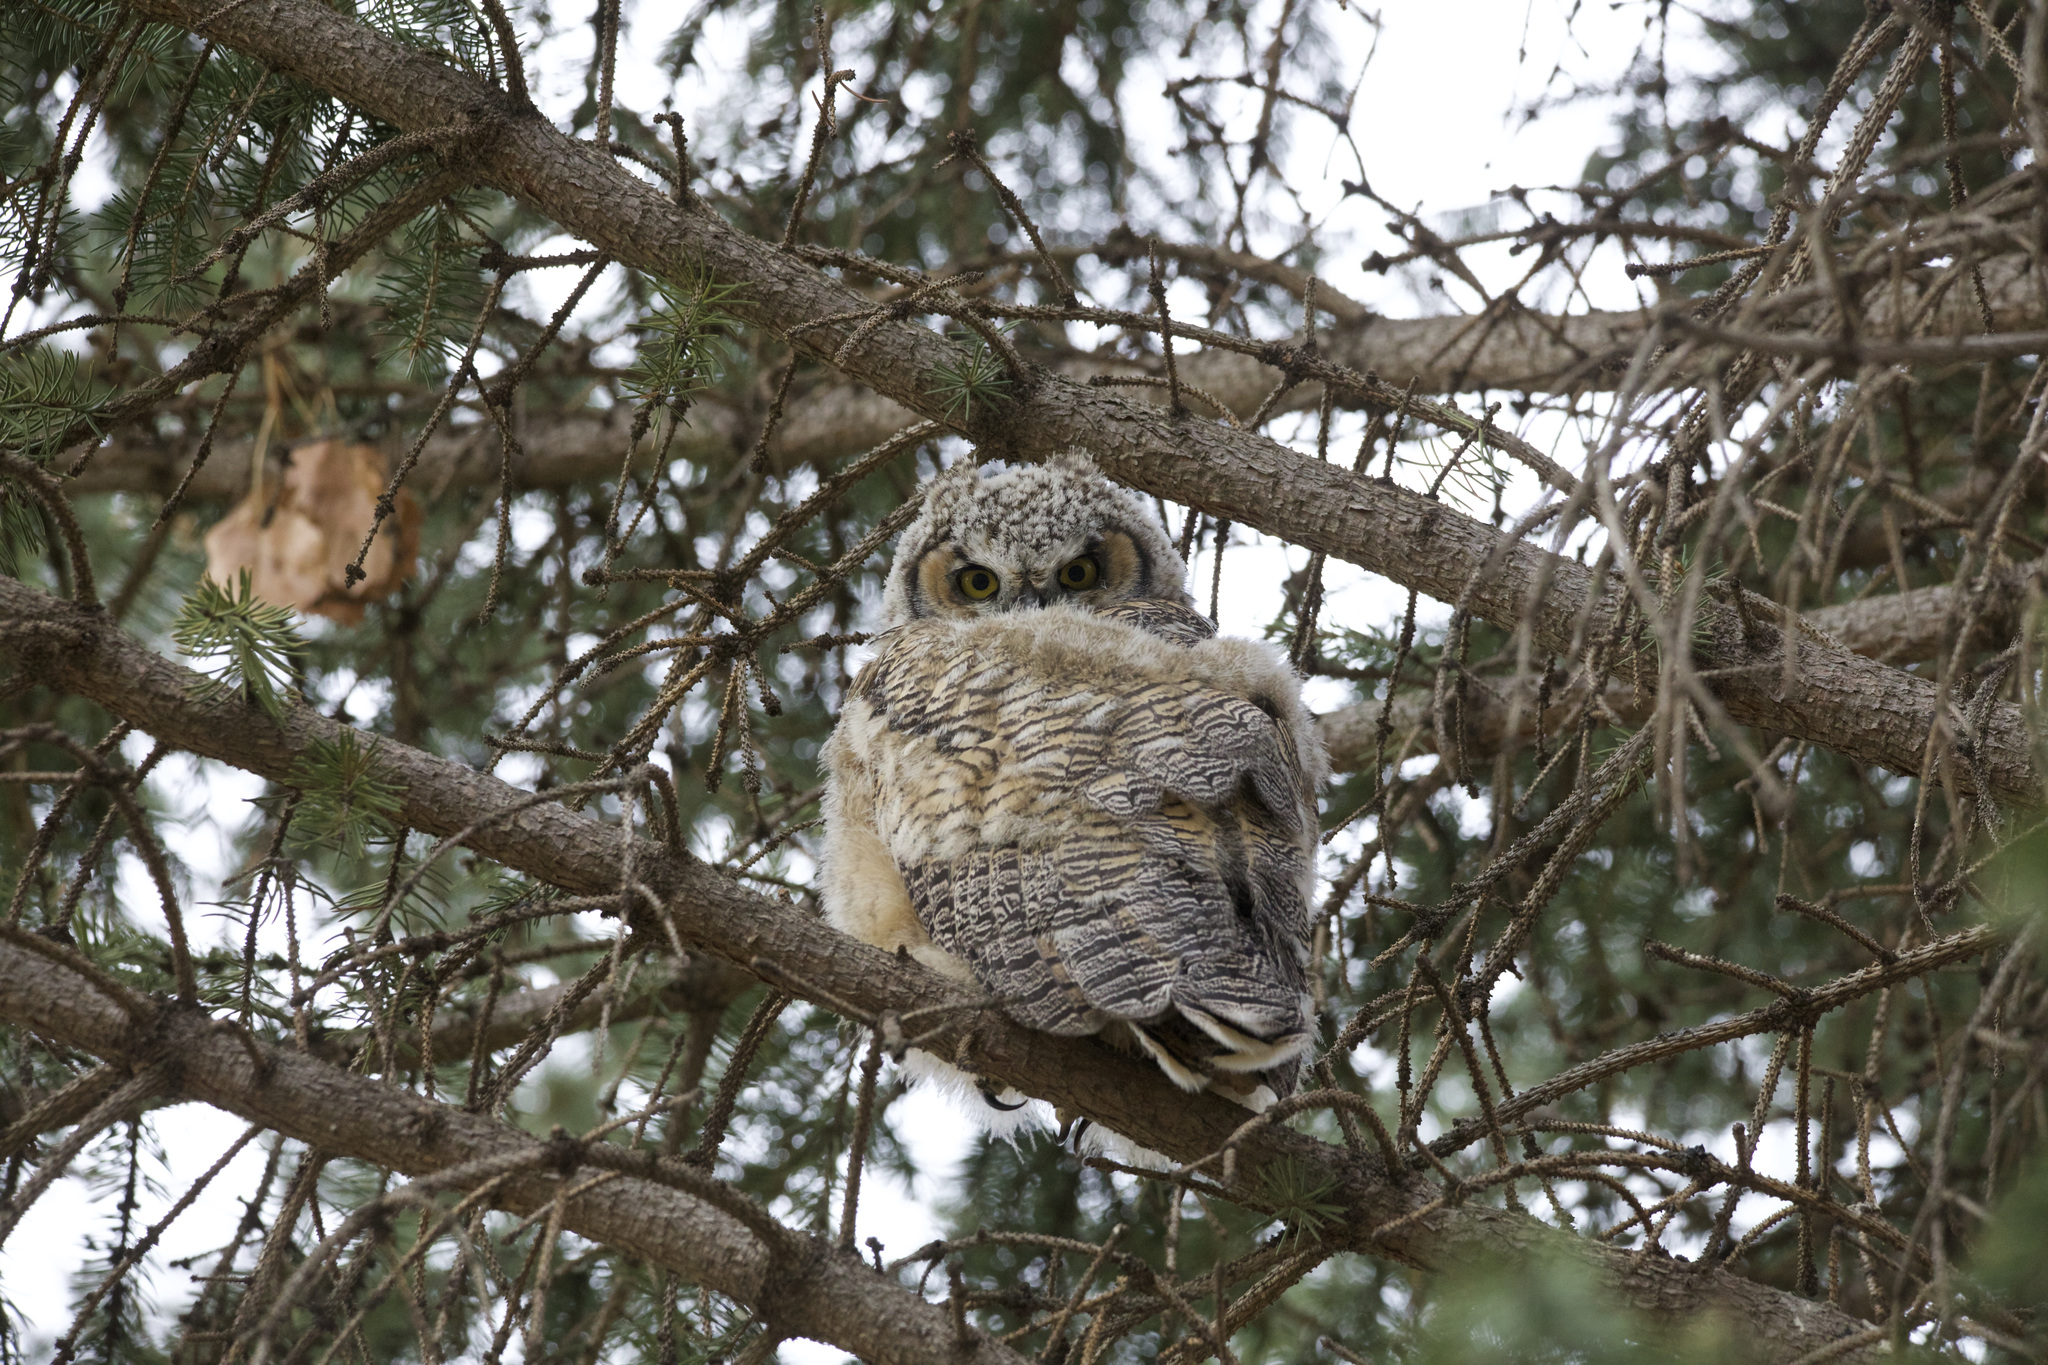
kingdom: Animalia
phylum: Chordata
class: Aves
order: Strigiformes
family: Strigidae
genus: Bubo
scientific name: Bubo virginianus
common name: Great horned owl
